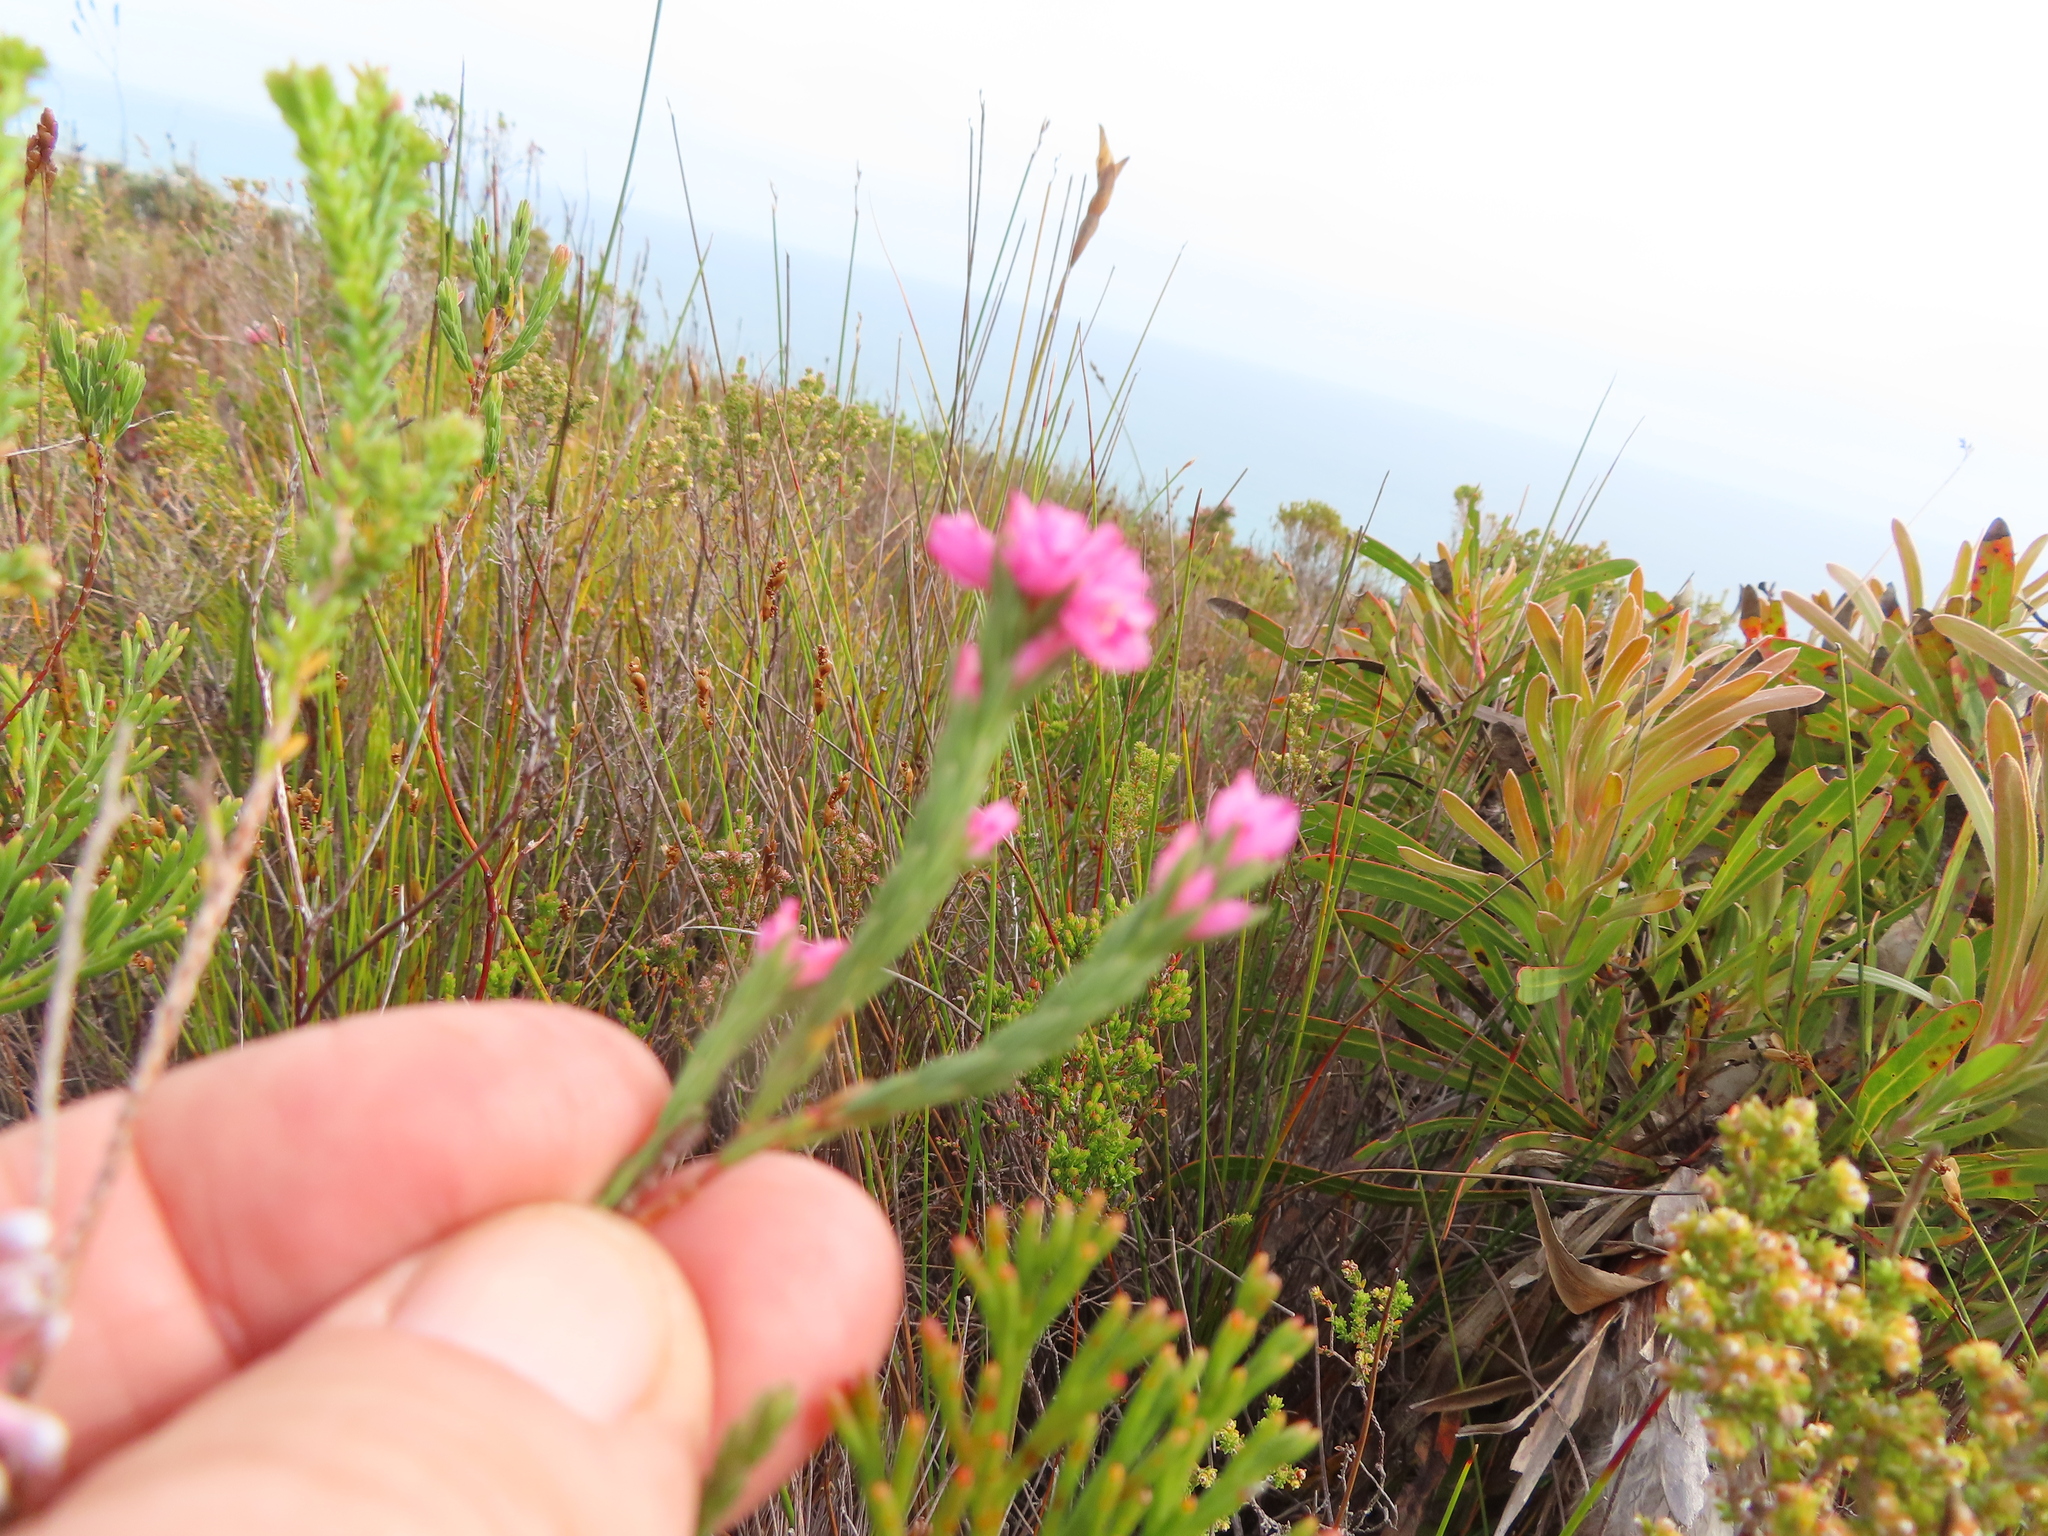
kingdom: Plantae
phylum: Tracheophyta
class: Magnoliopsida
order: Ericales
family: Ericaceae
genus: Erica
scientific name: Erica corifolia
